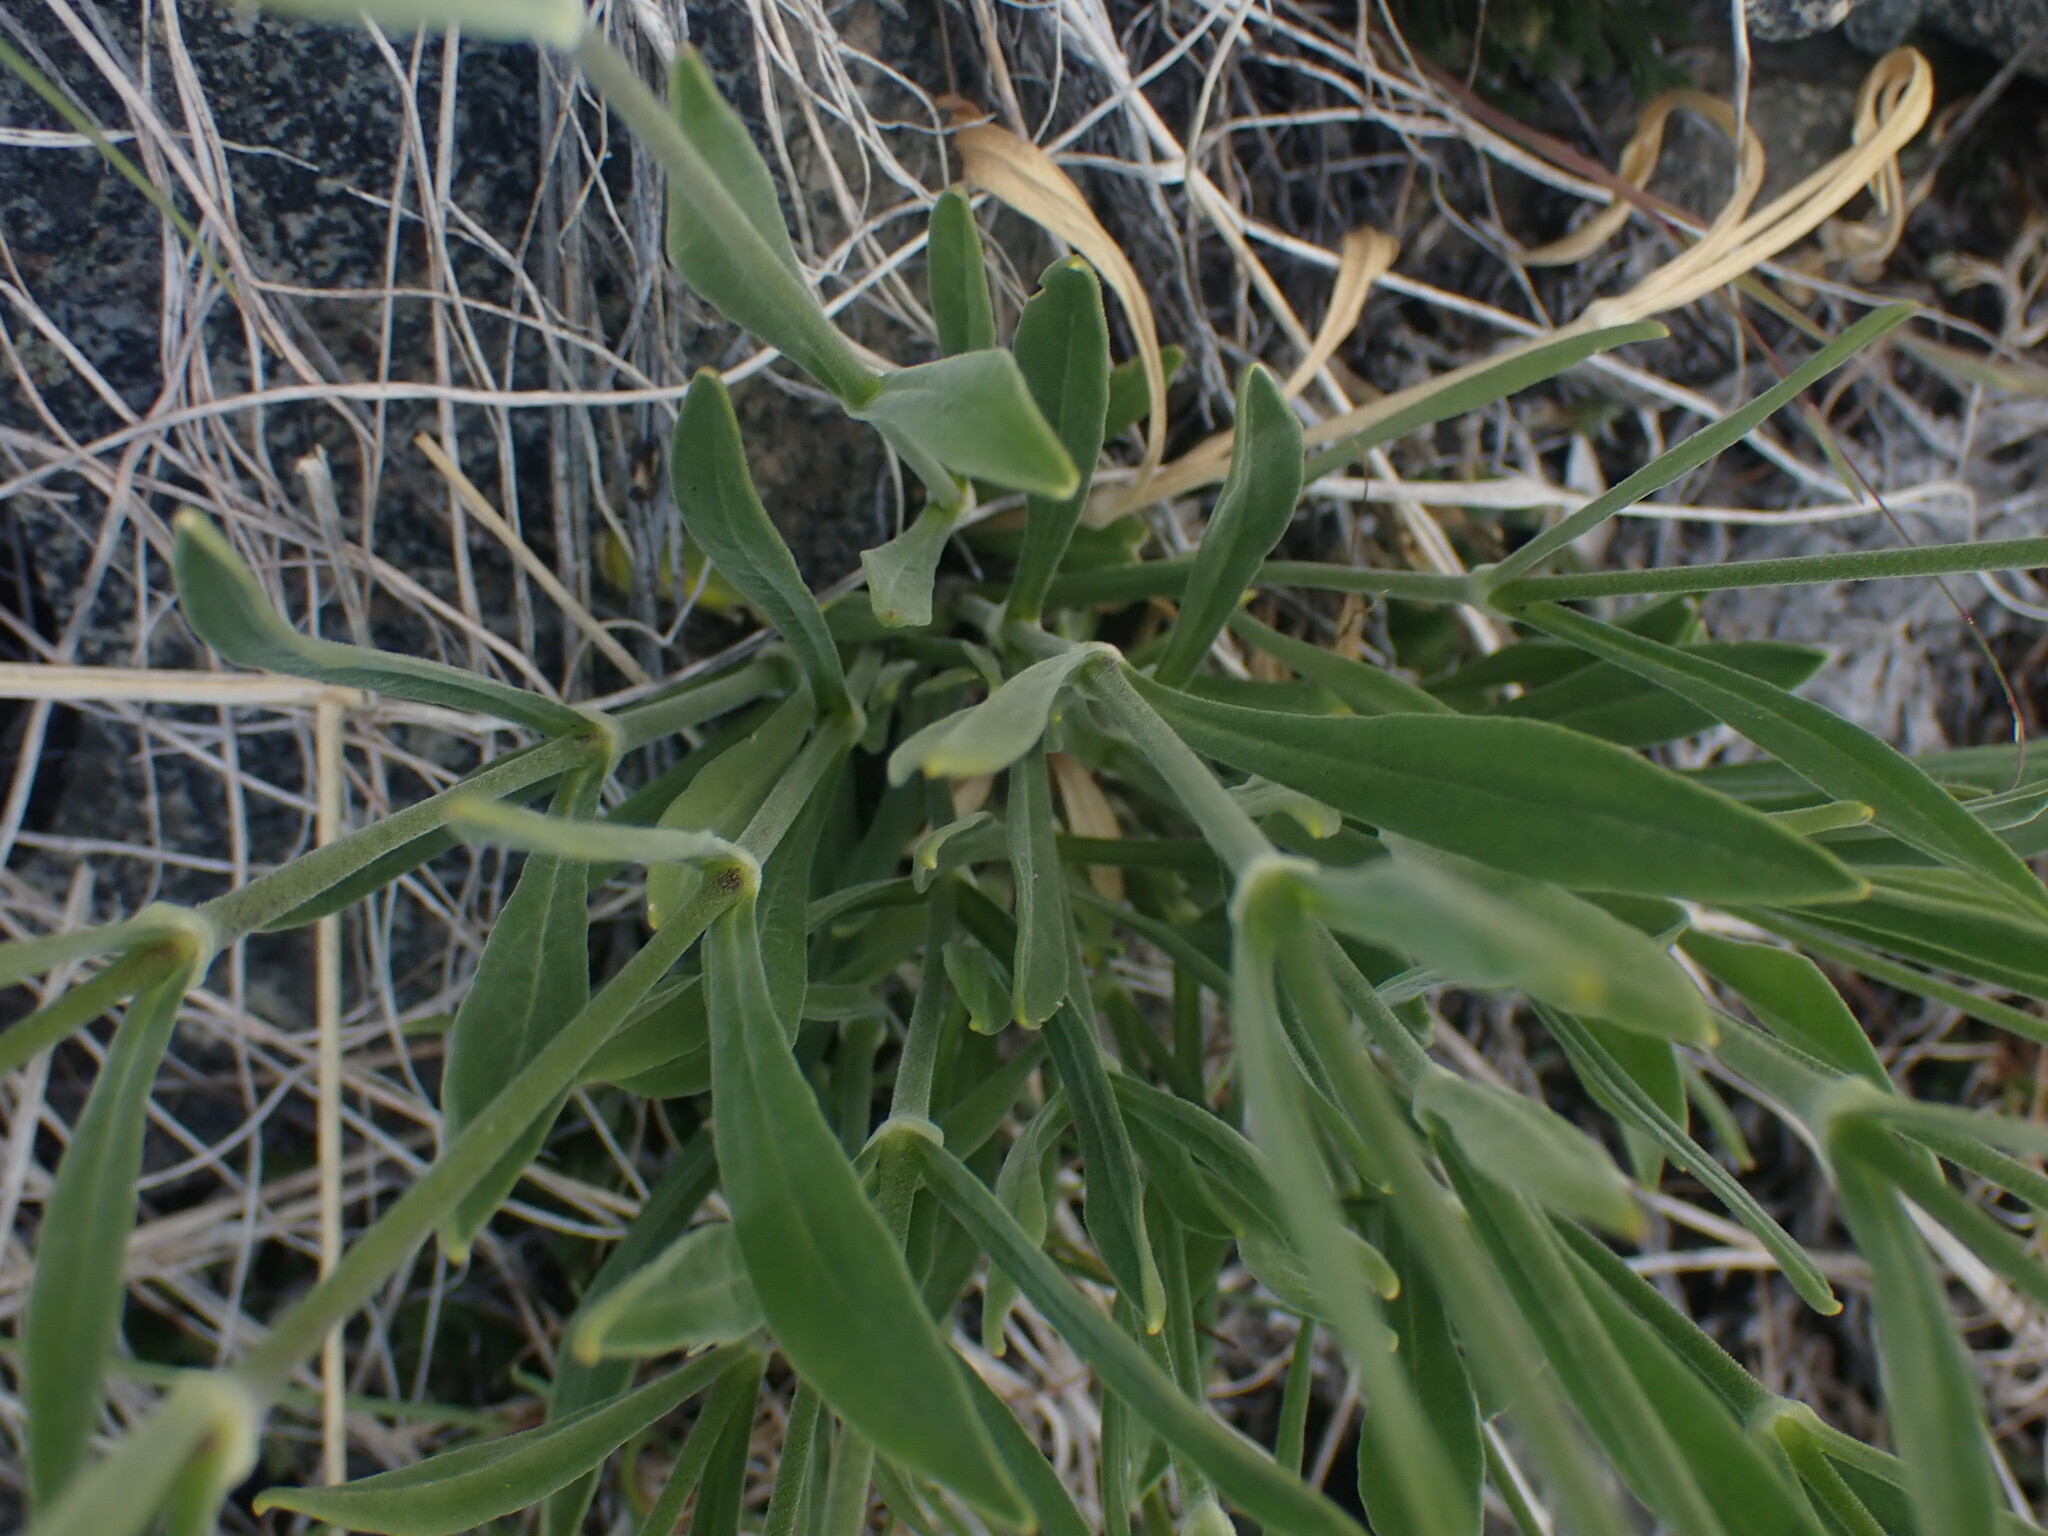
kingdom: Plantae
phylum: Tracheophyta
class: Magnoliopsida
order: Caryophyllales
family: Caryophyllaceae
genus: Silene
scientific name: Silene douglasii
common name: Douglas's catchfly
